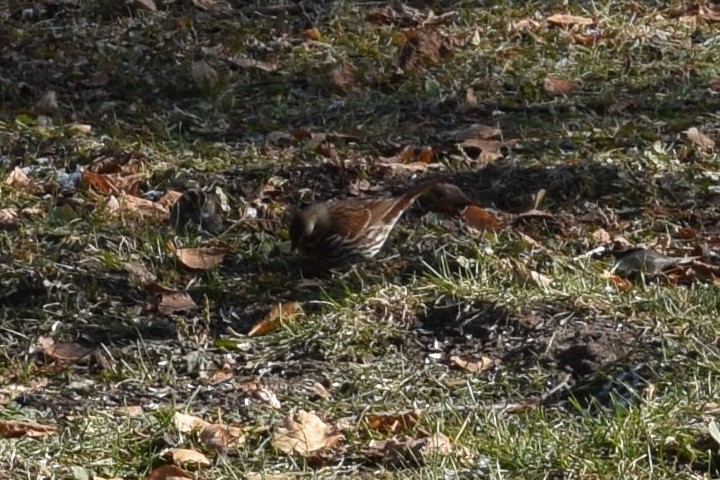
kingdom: Animalia
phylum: Chordata
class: Aves
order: Passeriformes
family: Passerellidae
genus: Passerella
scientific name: Passerella iliaca
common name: Fox sparrow
